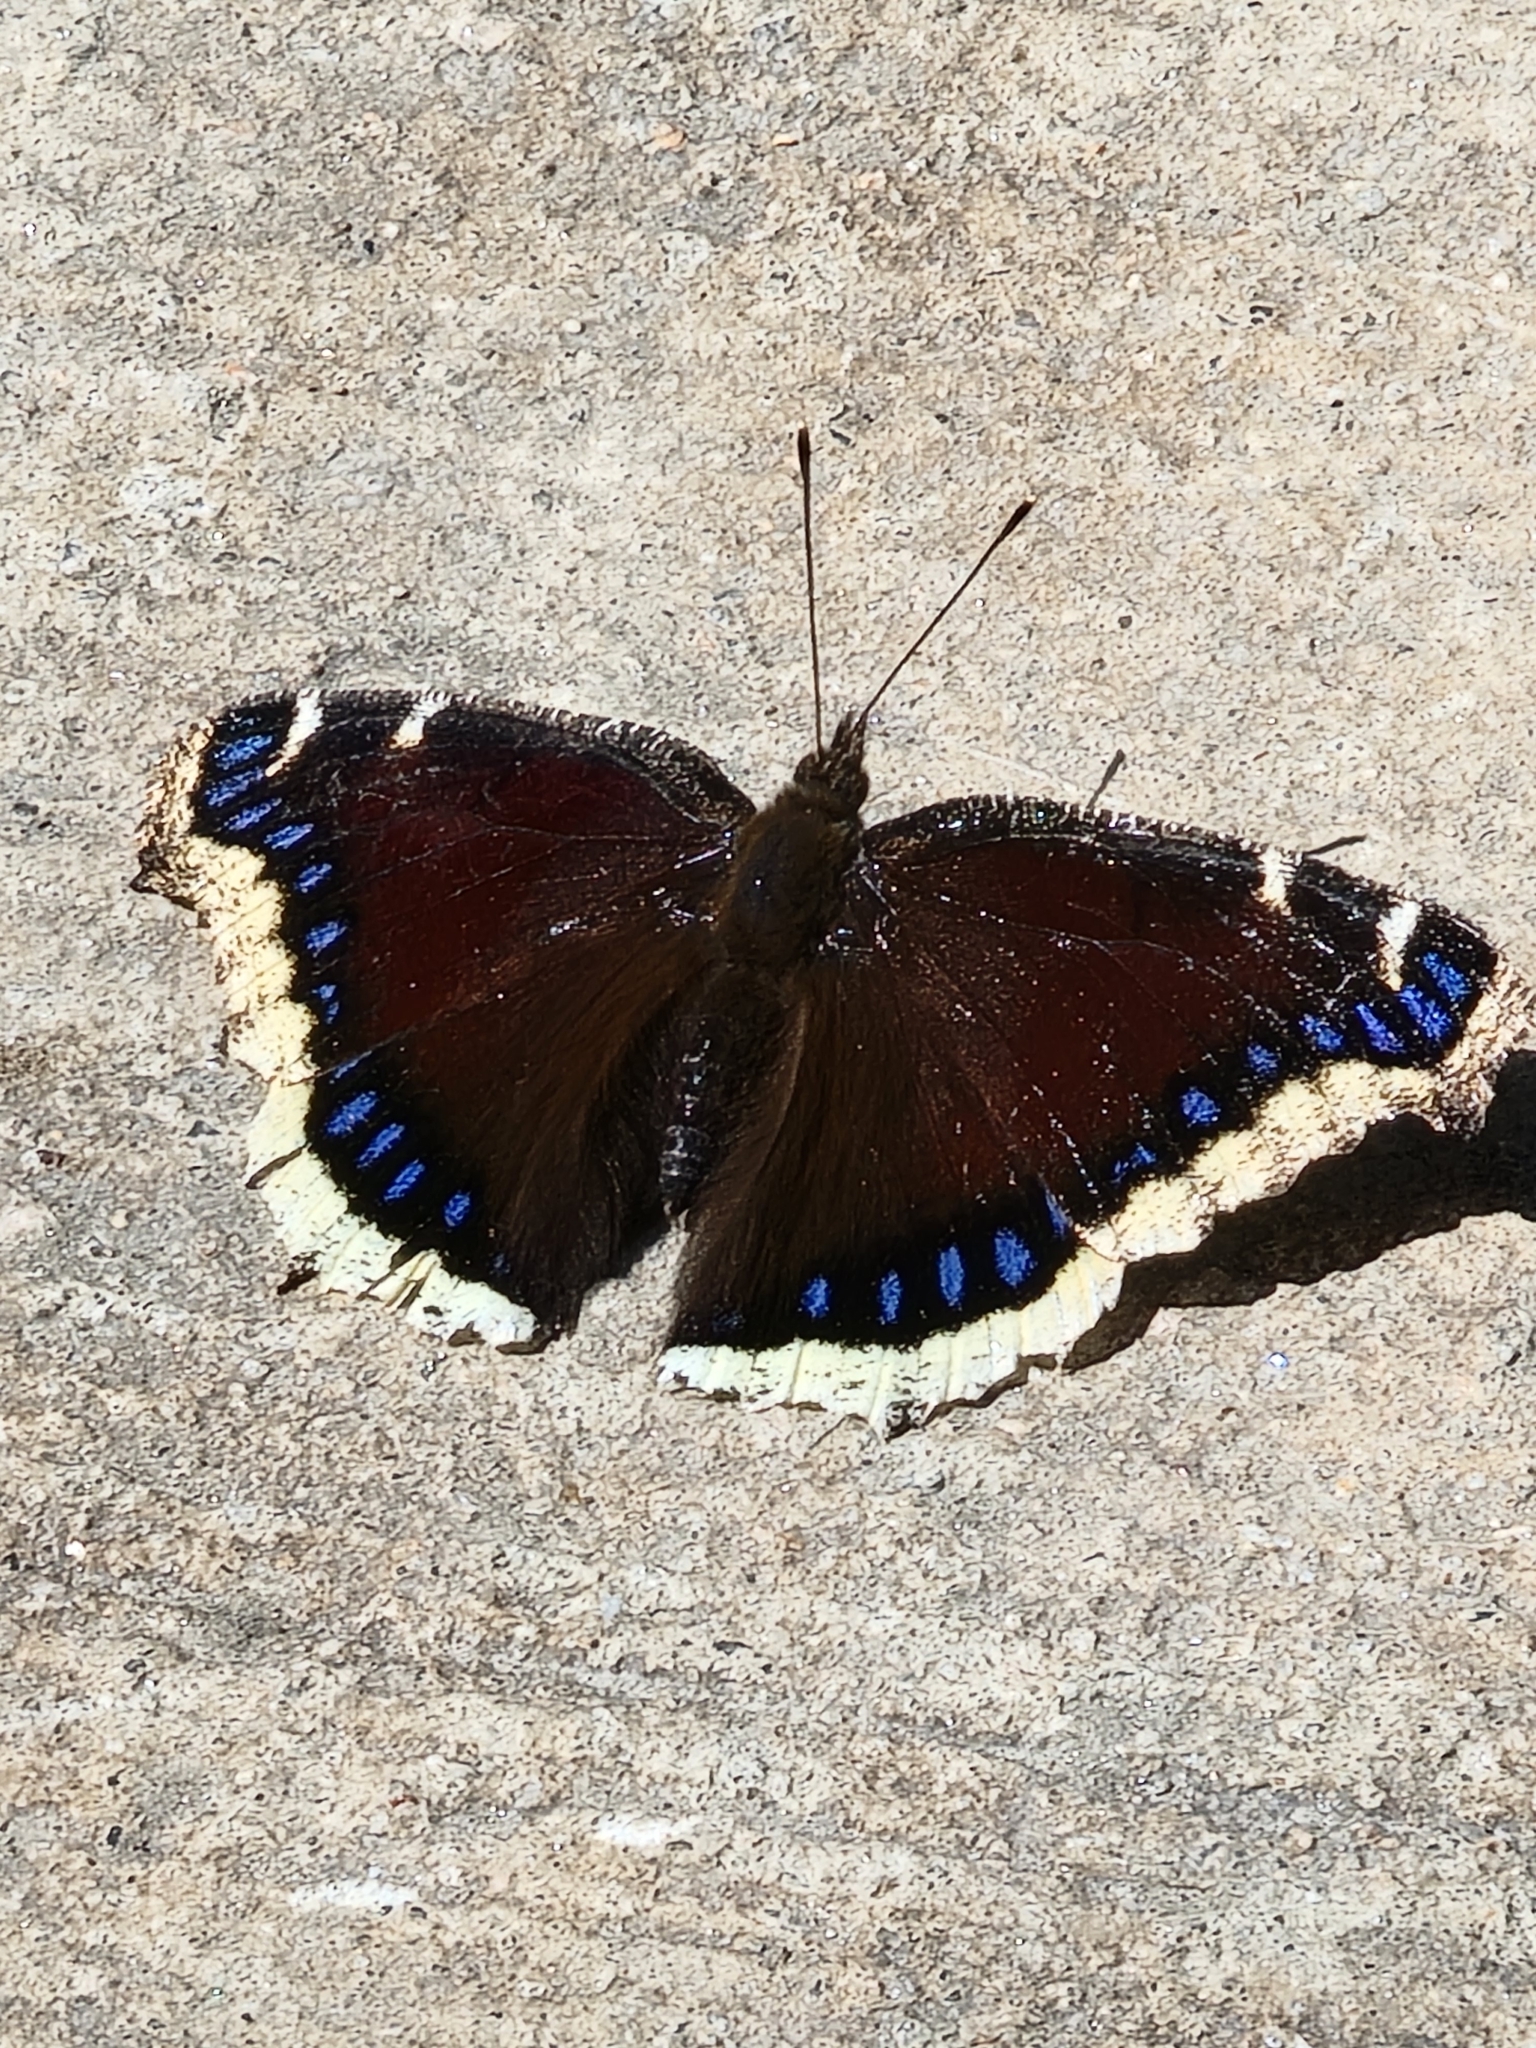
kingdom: Animalia
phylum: Arthropoda
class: Insecta
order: Lepidoptera
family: Nymphalidae
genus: Nymphalis
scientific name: Nymphalis antiopa
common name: Camberwell beauty
